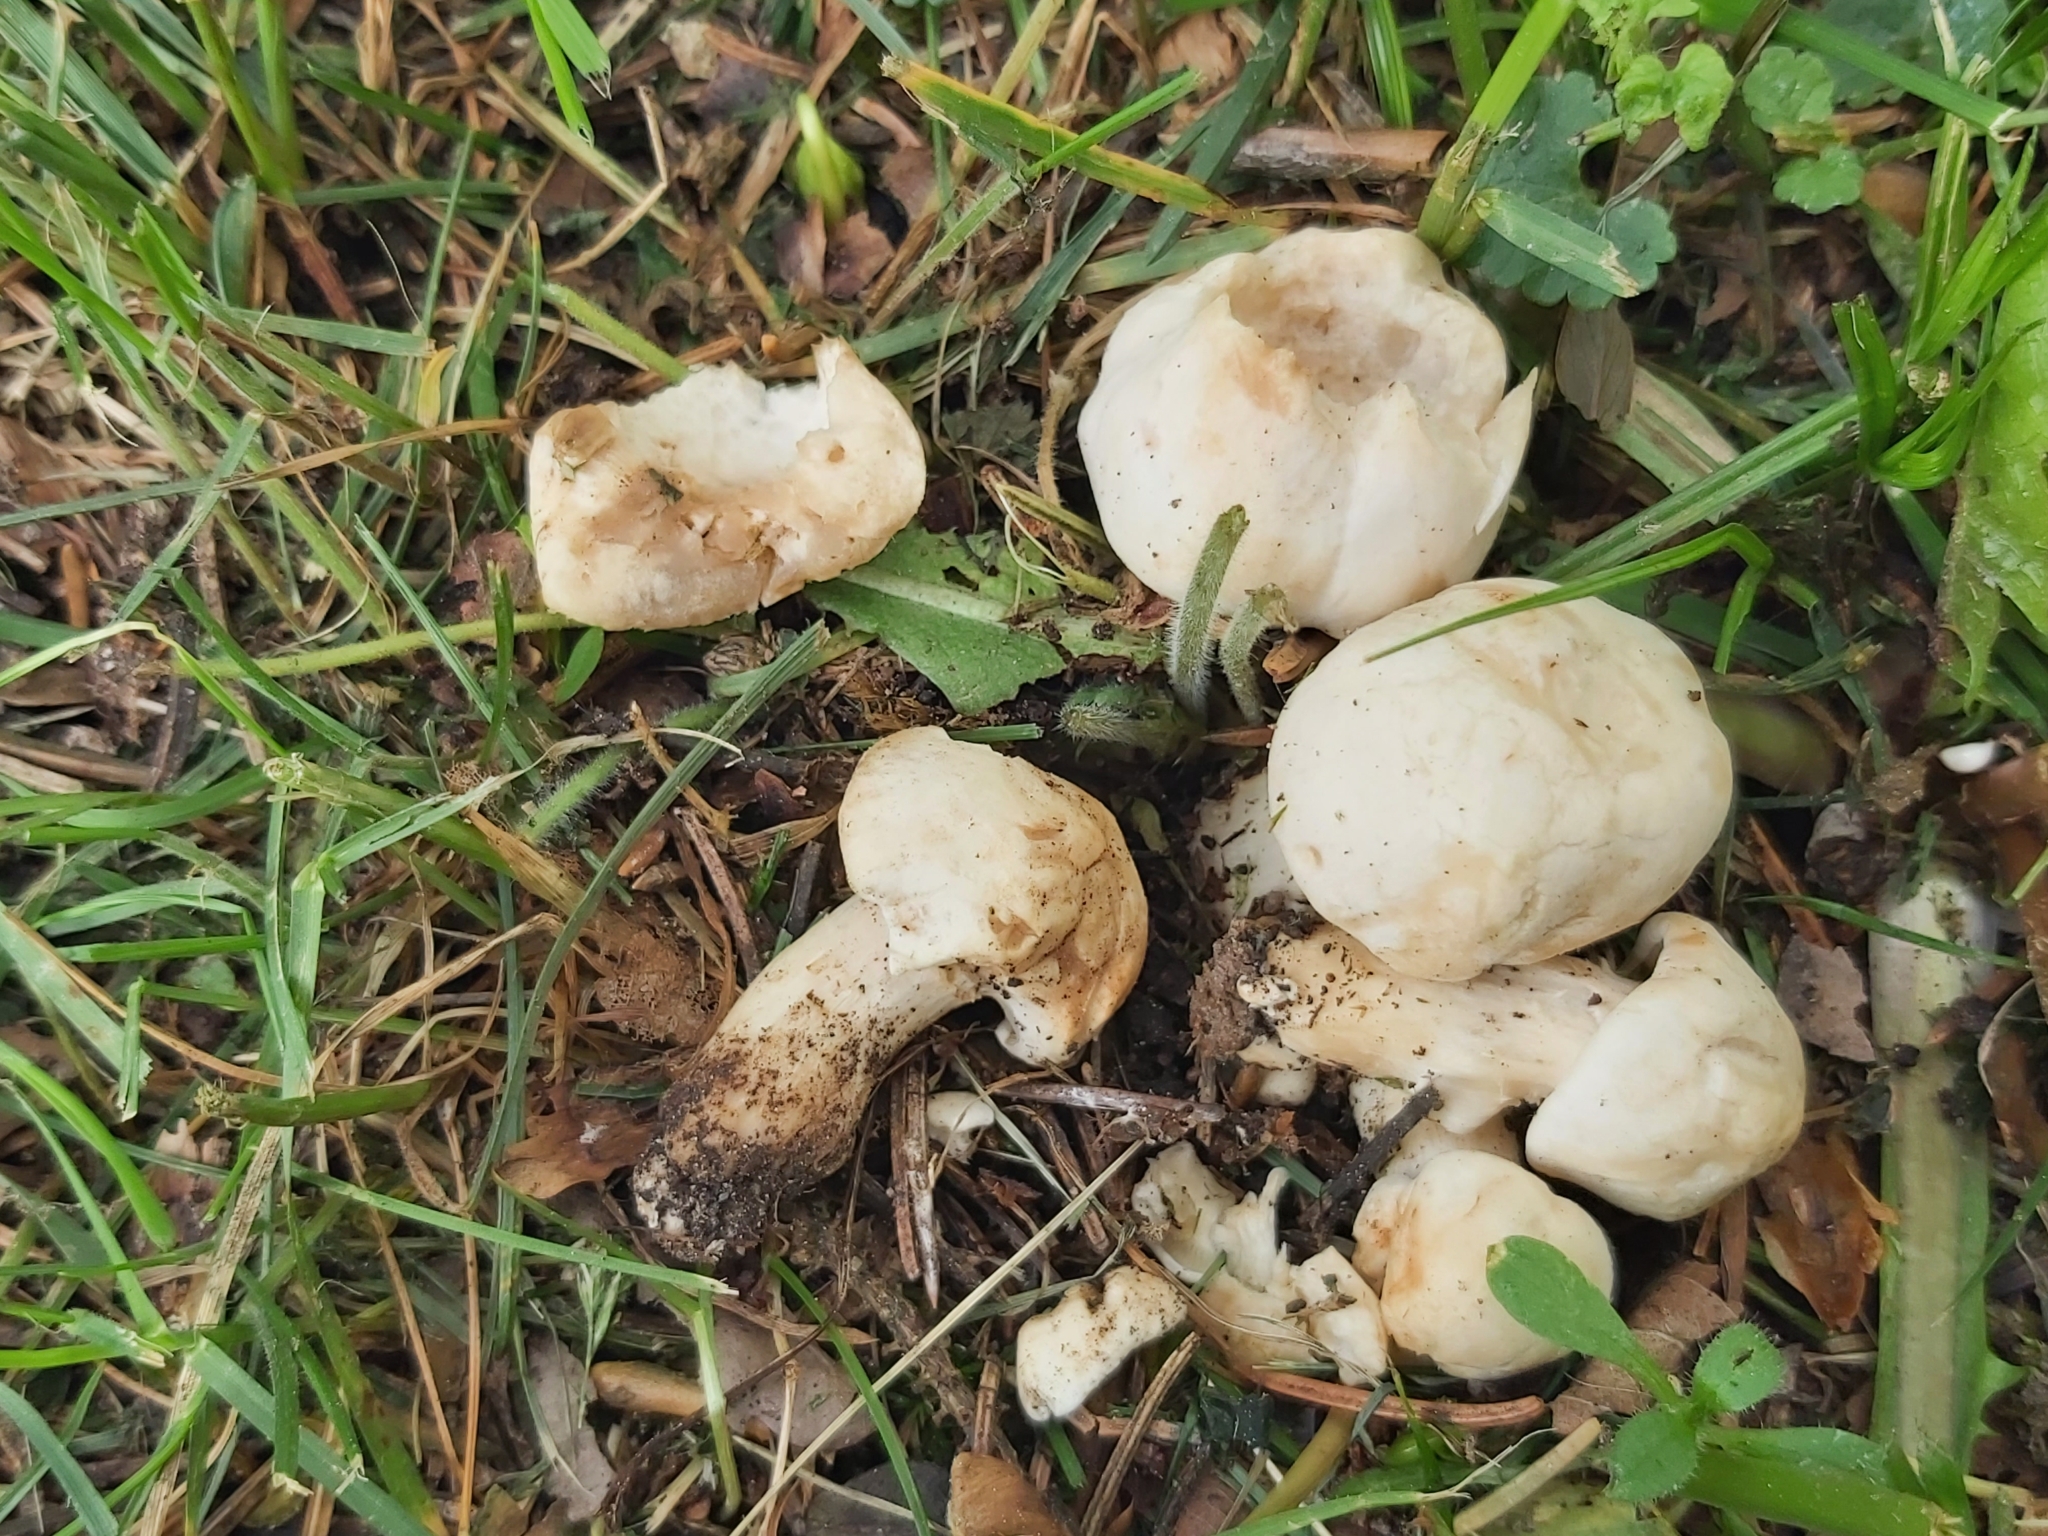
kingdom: Fungi
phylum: Basidiomycota
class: Agaricomycetes
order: Agaricales
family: Lyophyllaceae
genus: Calocybe
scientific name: Calocybe gambosa
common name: St. george's mushroom
